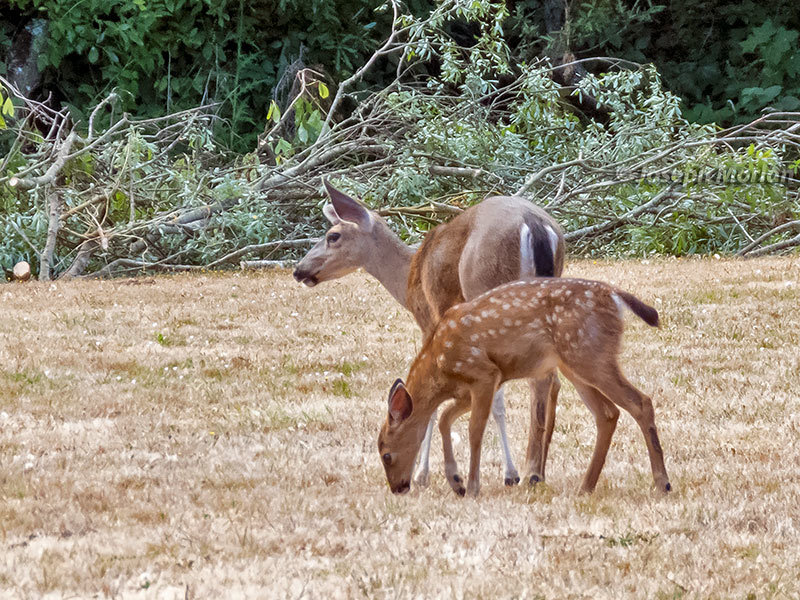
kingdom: Animalia
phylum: Chordata
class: Mammalia
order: Artiodactyla
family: Cervidae
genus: Odocoileus
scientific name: Odocoileus hemionus
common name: Mule deer
